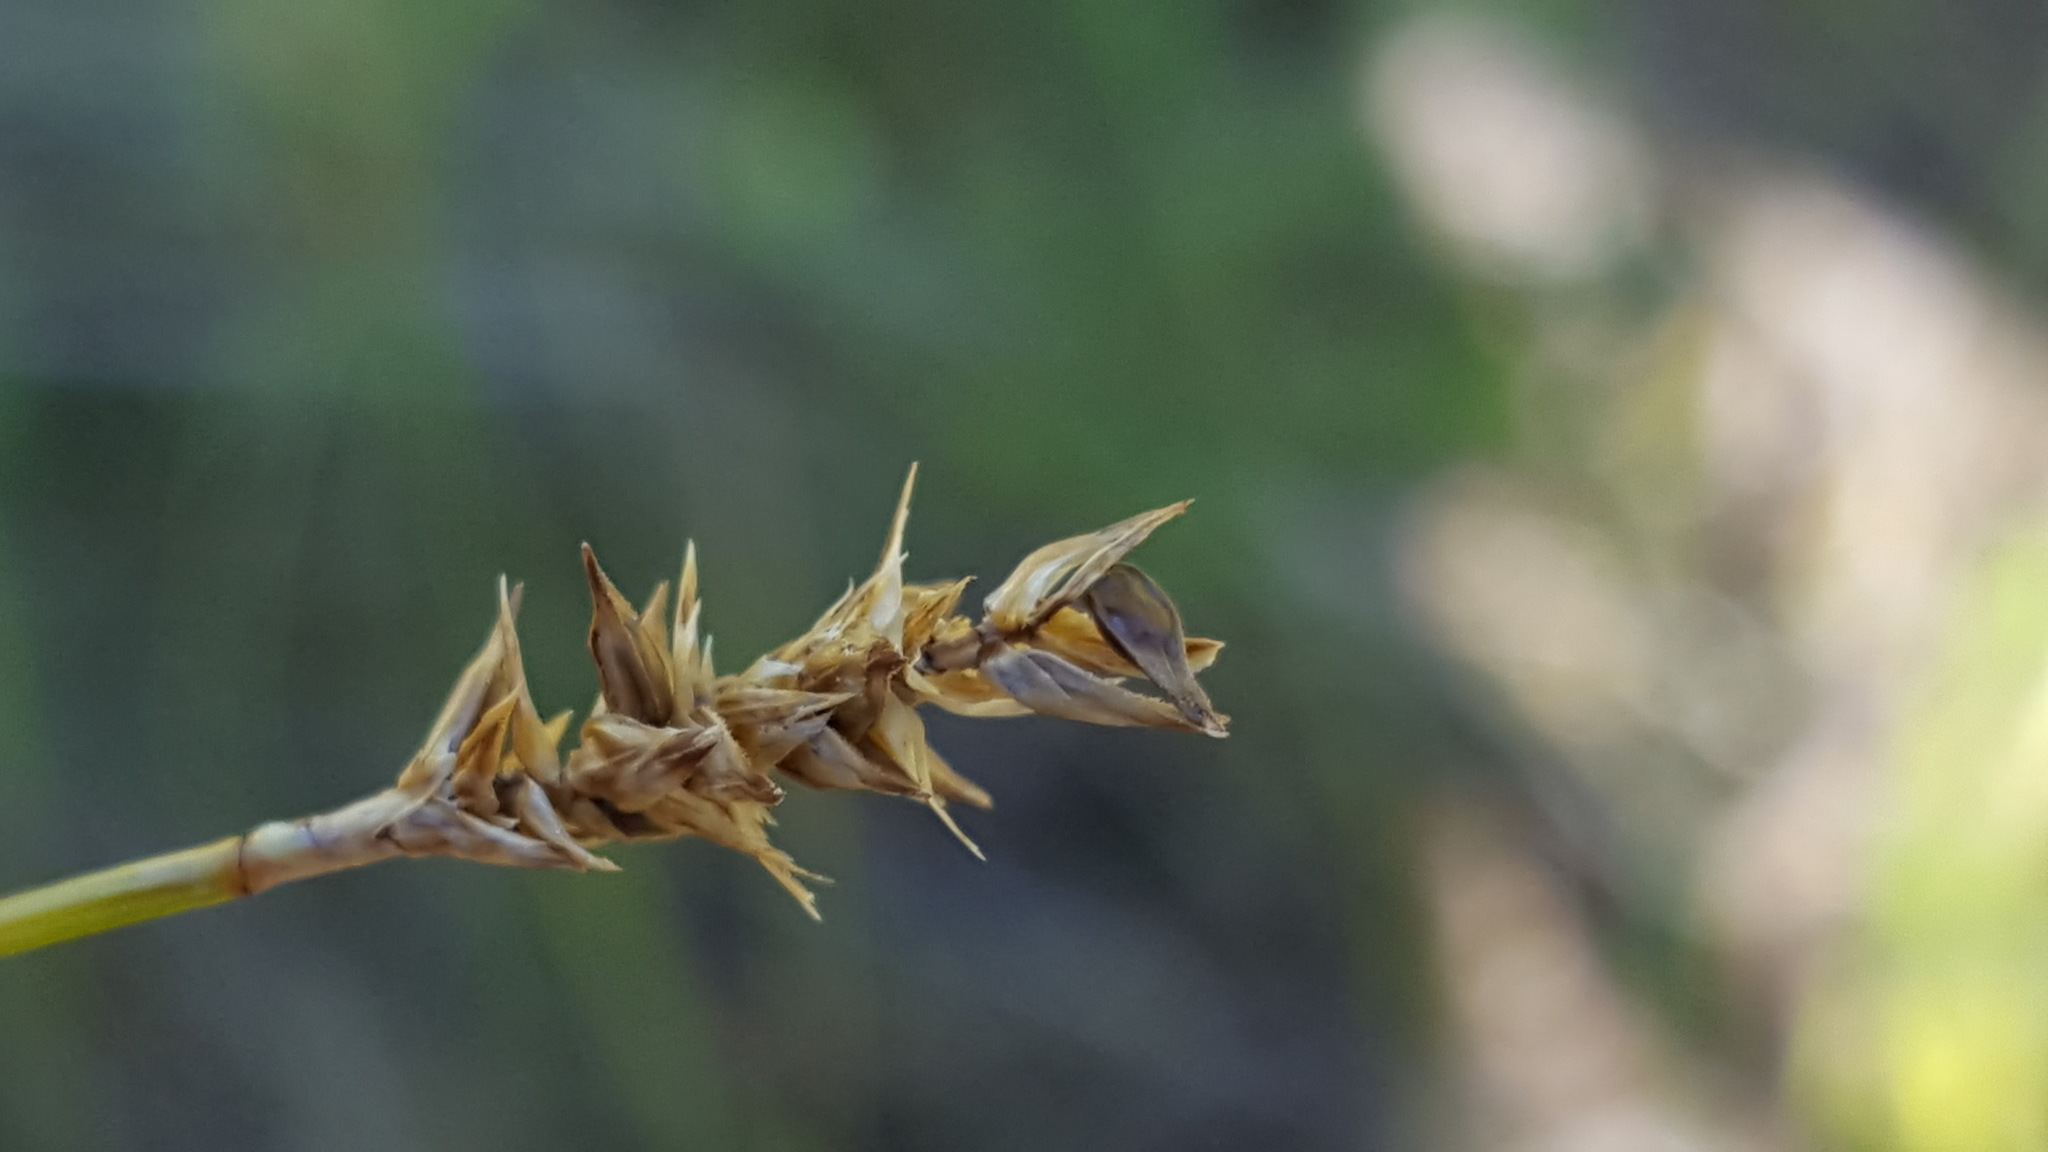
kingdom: Plantae
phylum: Tracheophyta
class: Liliopsida
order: Poales
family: Cyperaceae
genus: Carex
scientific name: Carex exilis
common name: Coastal sedge
